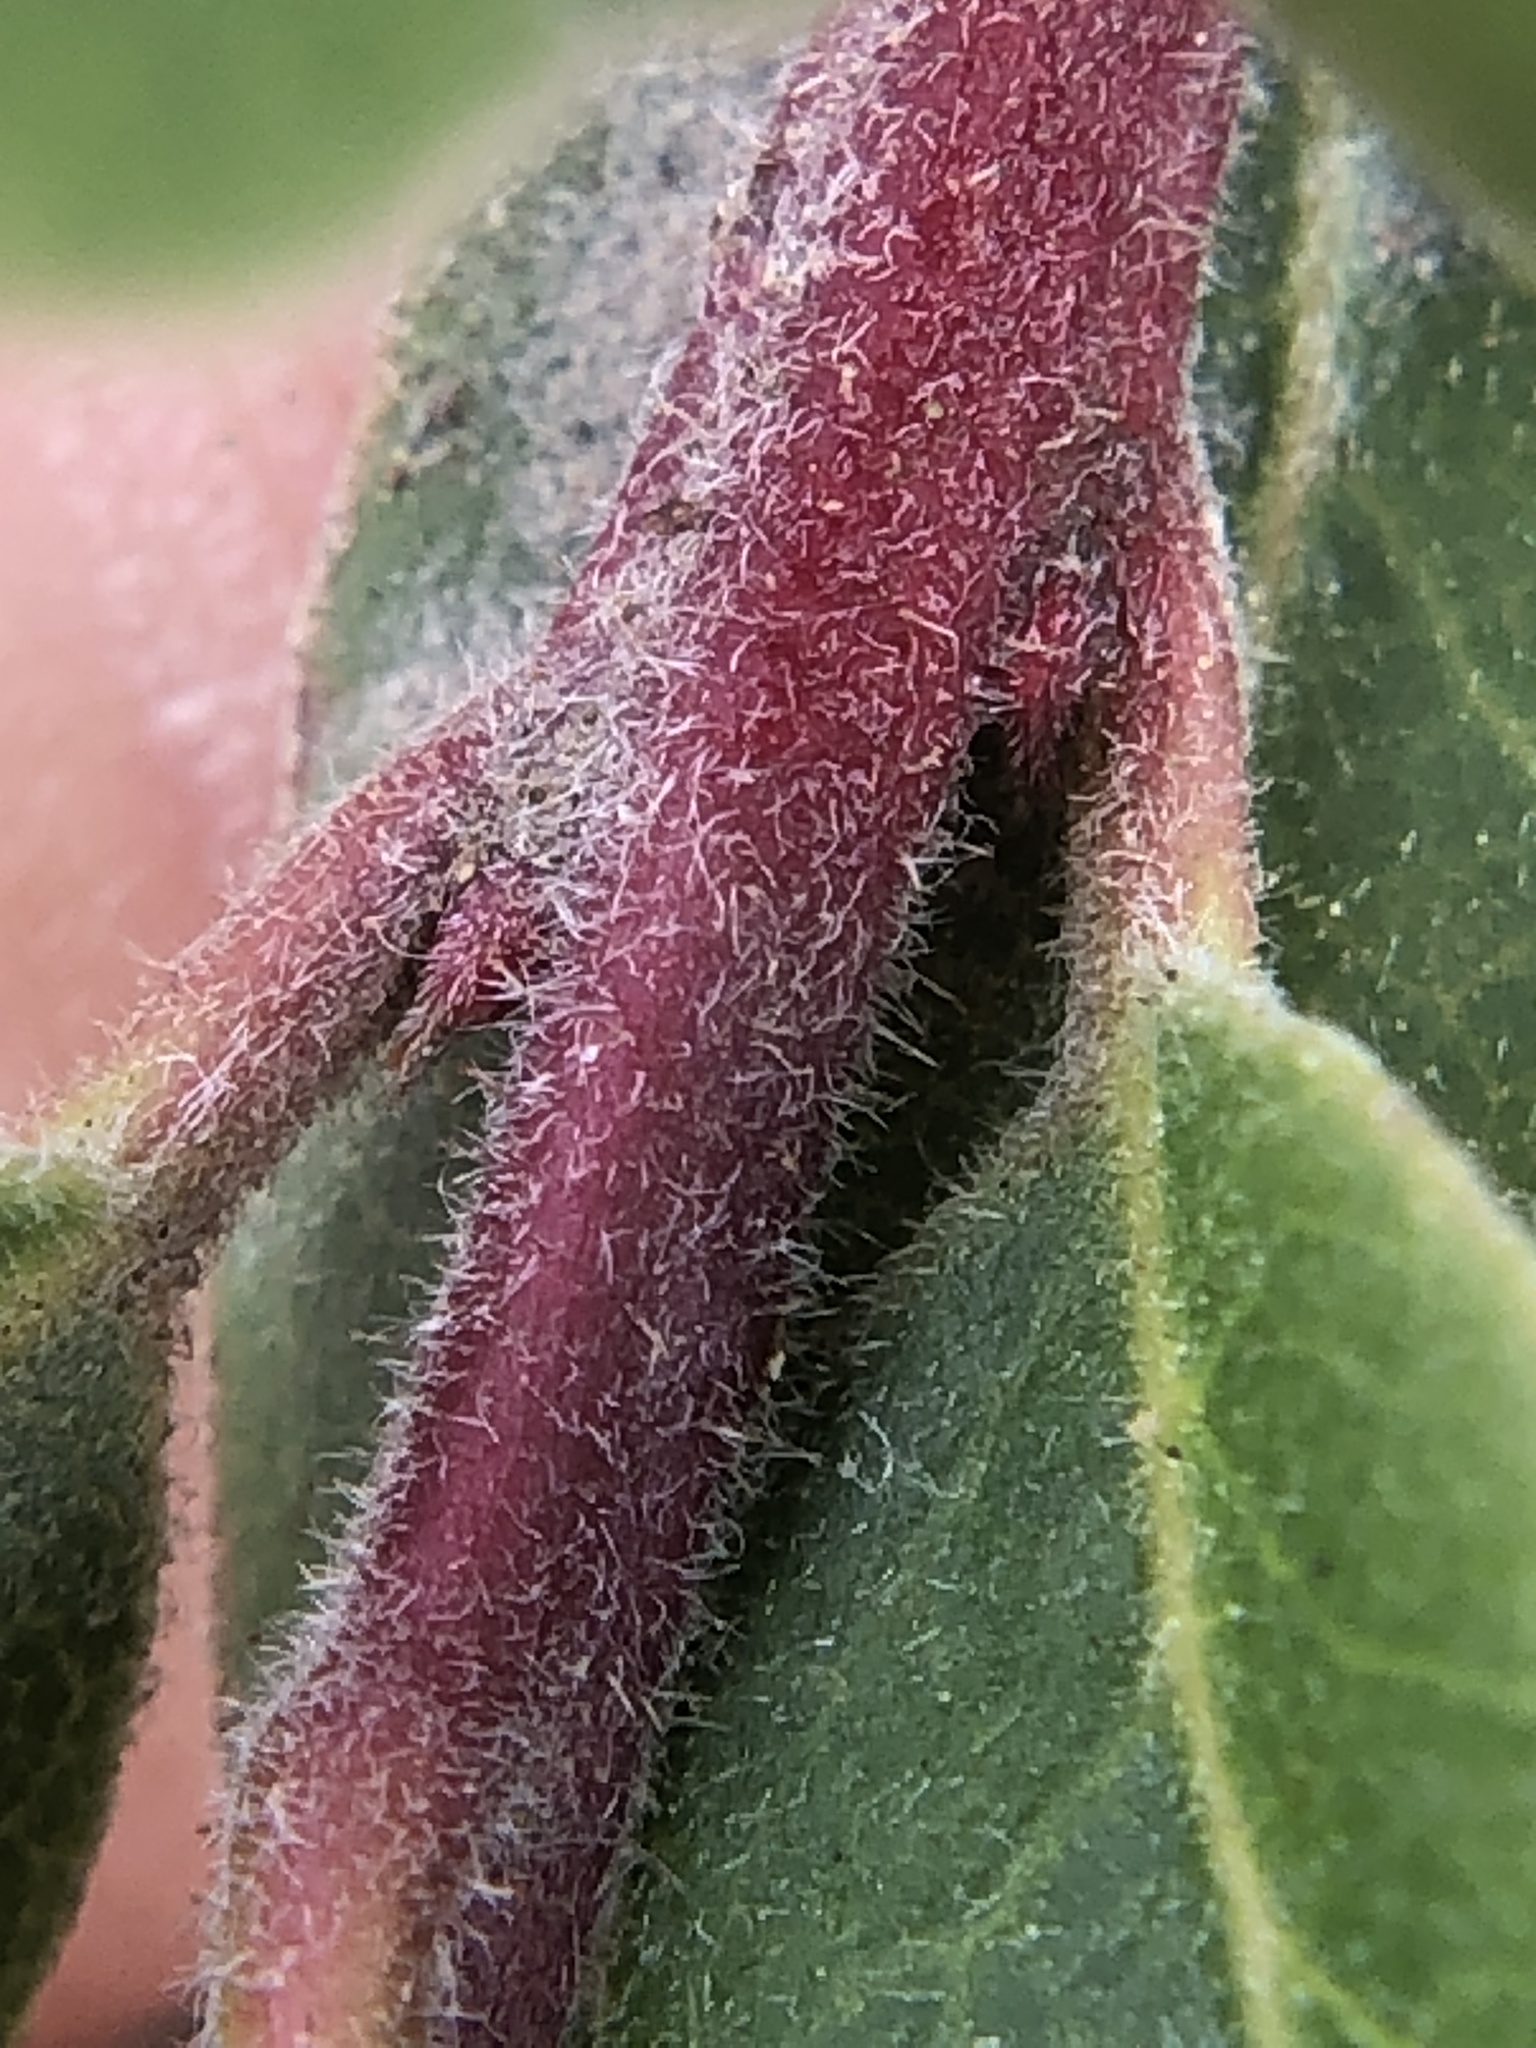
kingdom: Plantae
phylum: Tracheophyta
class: Magnoliopsida
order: Ericales
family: Ericaceae
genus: Arctostaphylos
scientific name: Arctostaphylos uva-ursi
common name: Bearberry
